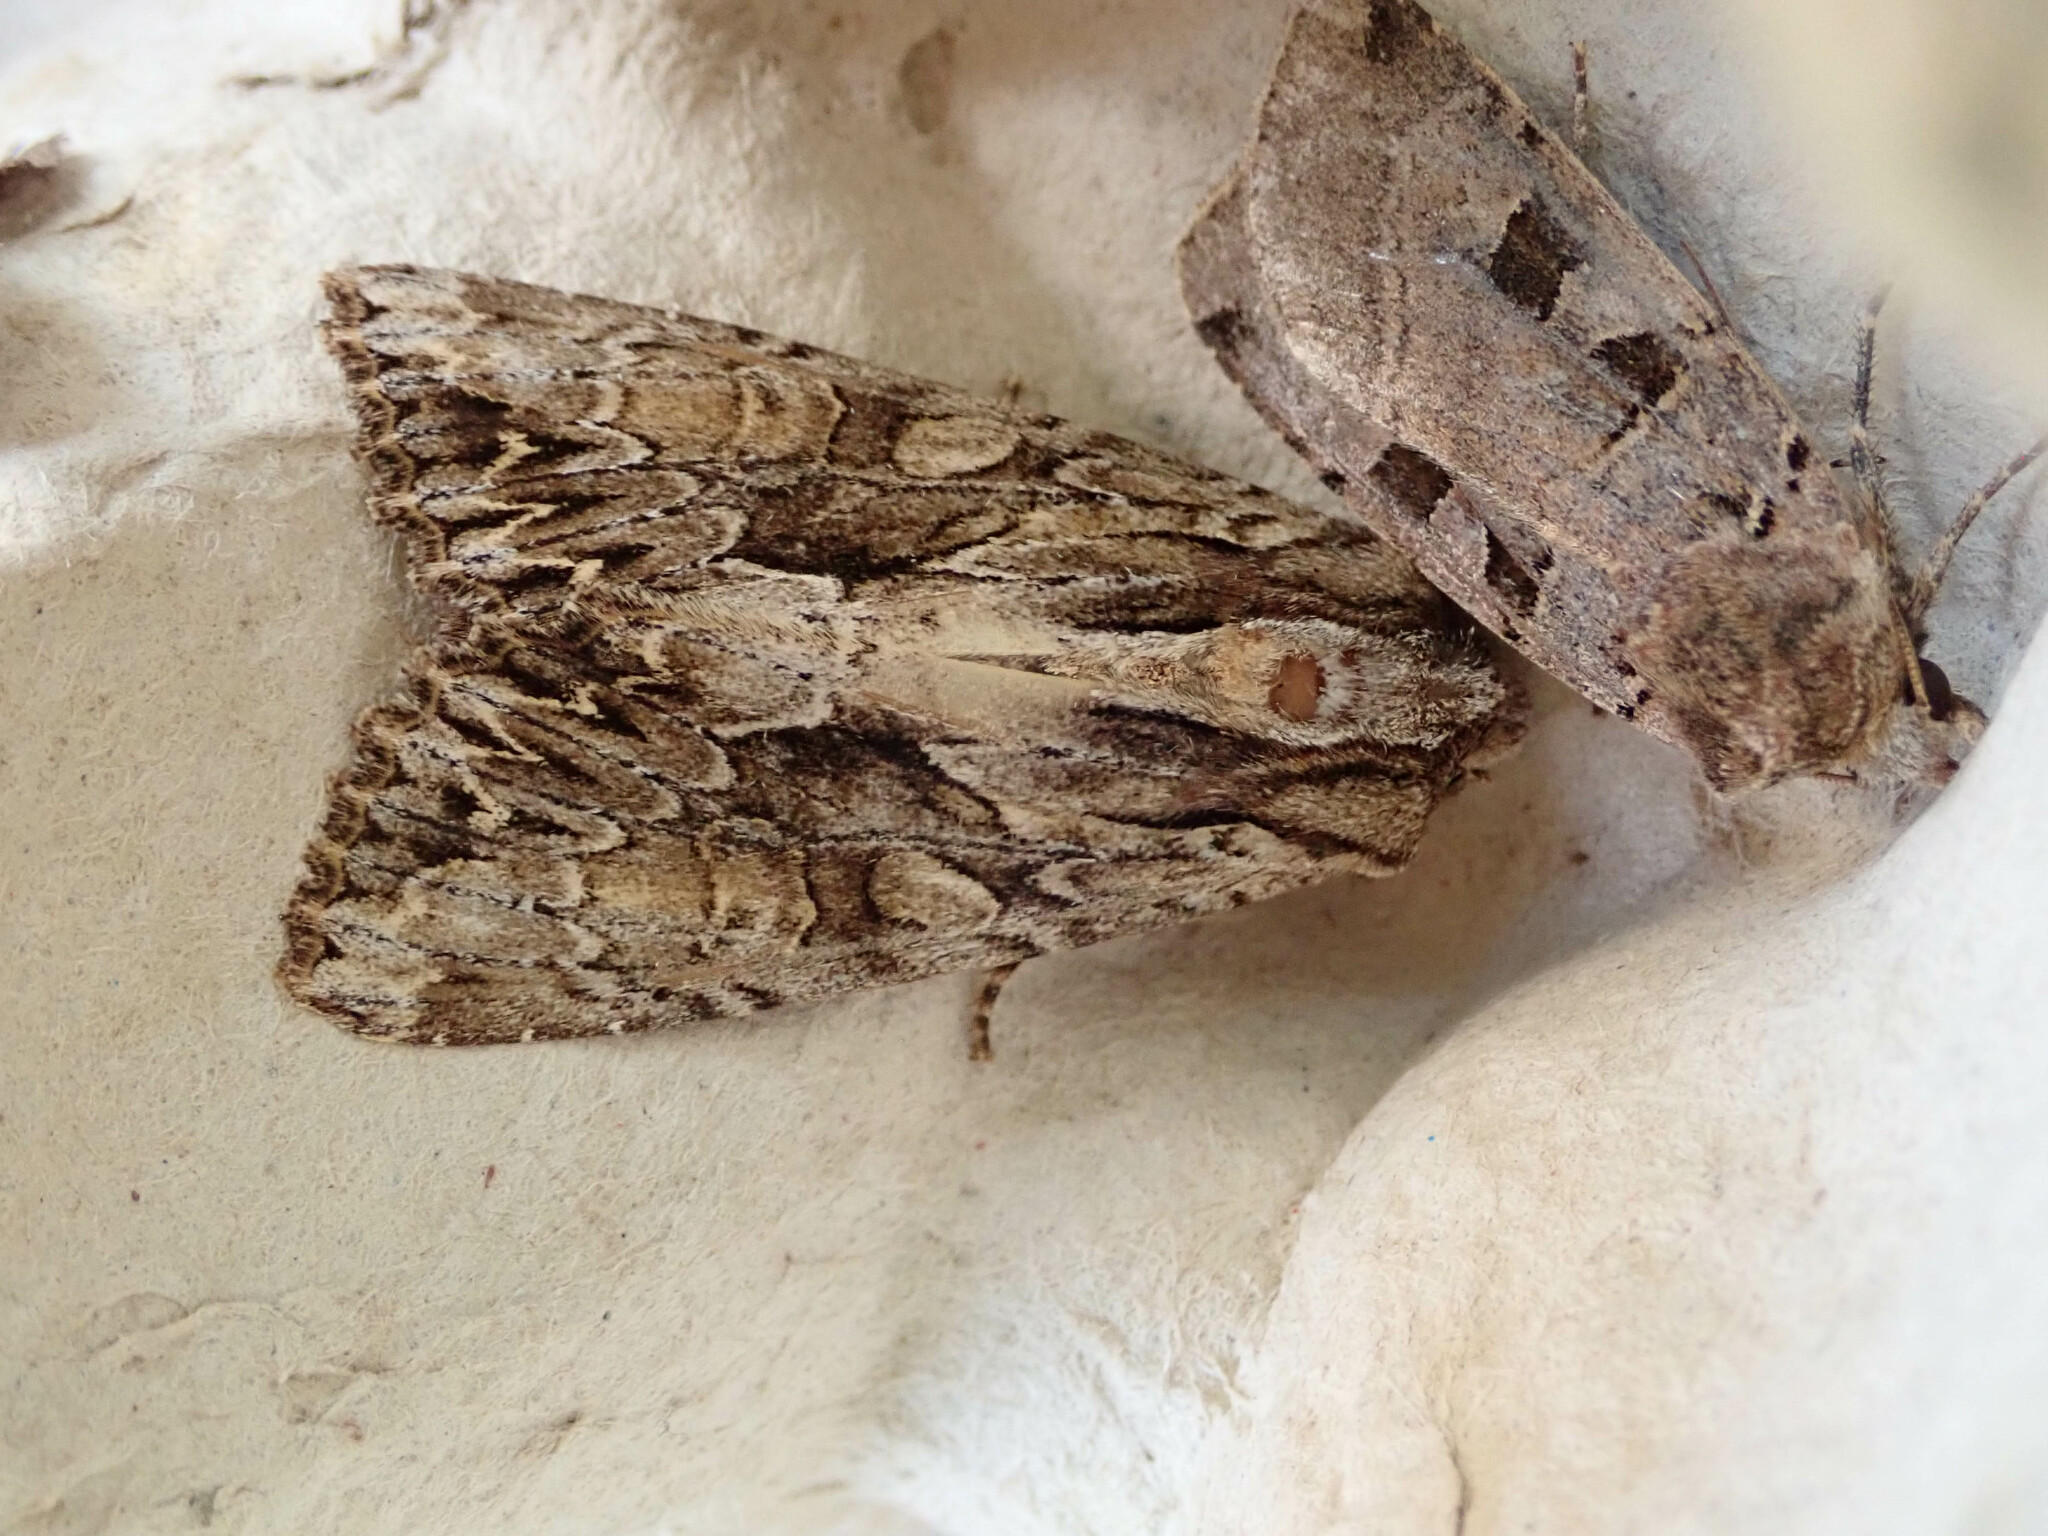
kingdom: Animalia
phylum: Arthropoda
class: Insecta
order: Lepidoptera
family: Noctuidae
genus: Apamea
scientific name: Apamea monoglypha
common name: Dark arches
